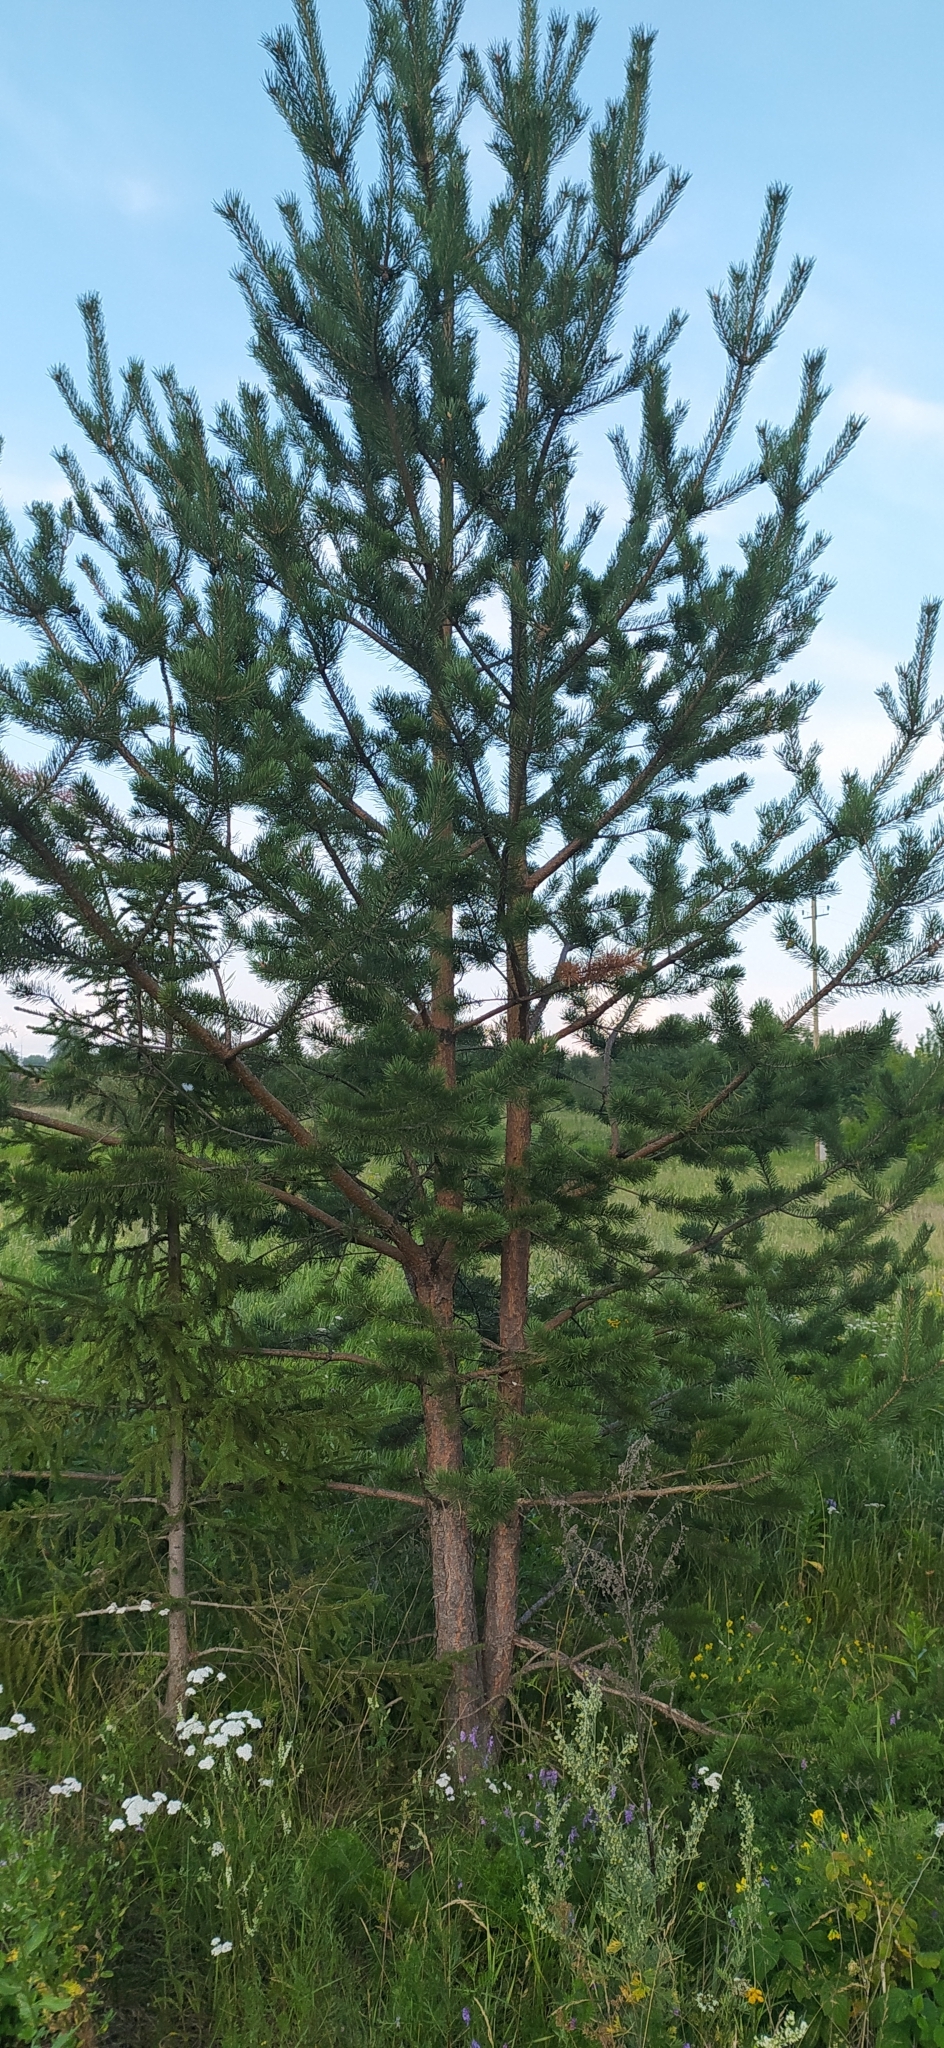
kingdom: Plantae
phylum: Tracheophyta
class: Pinopsida
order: Pinales
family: Pinaceae
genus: Pinus
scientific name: Pinus sylvestris
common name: Scots pine
